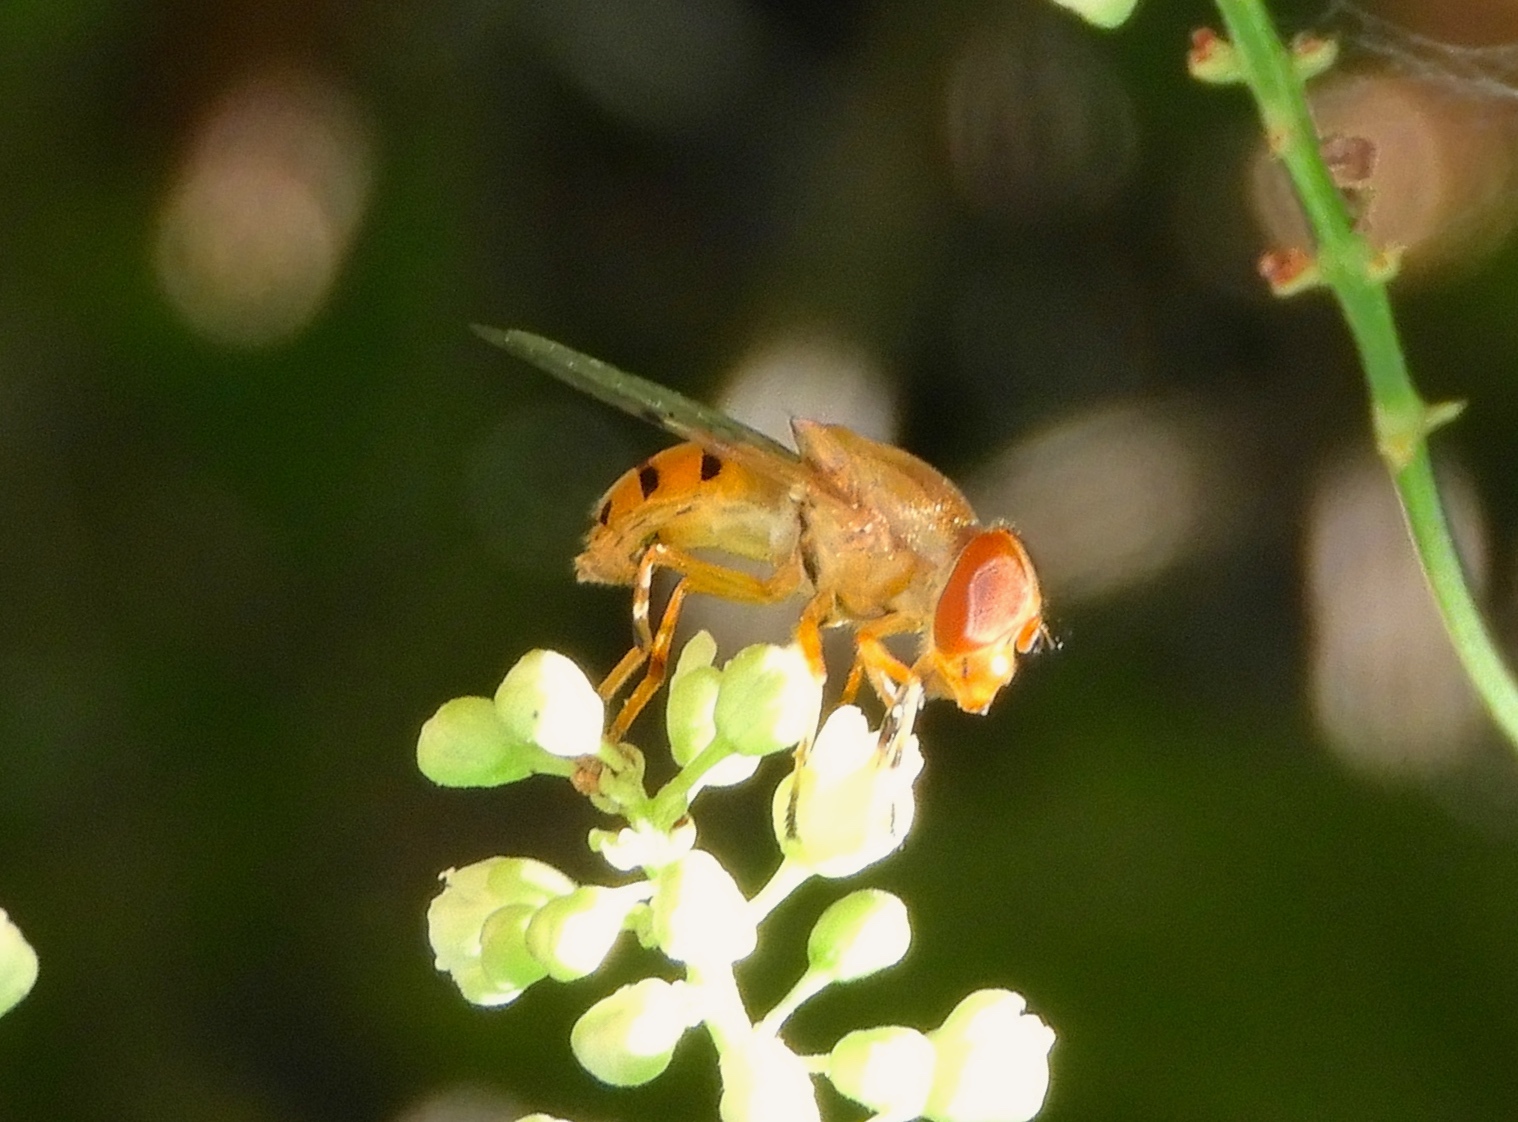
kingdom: Animalia
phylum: Arthropoda
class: Insecta
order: Diptera
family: Syrphidae
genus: Copestylum
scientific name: Copestylum sexmaculatum
